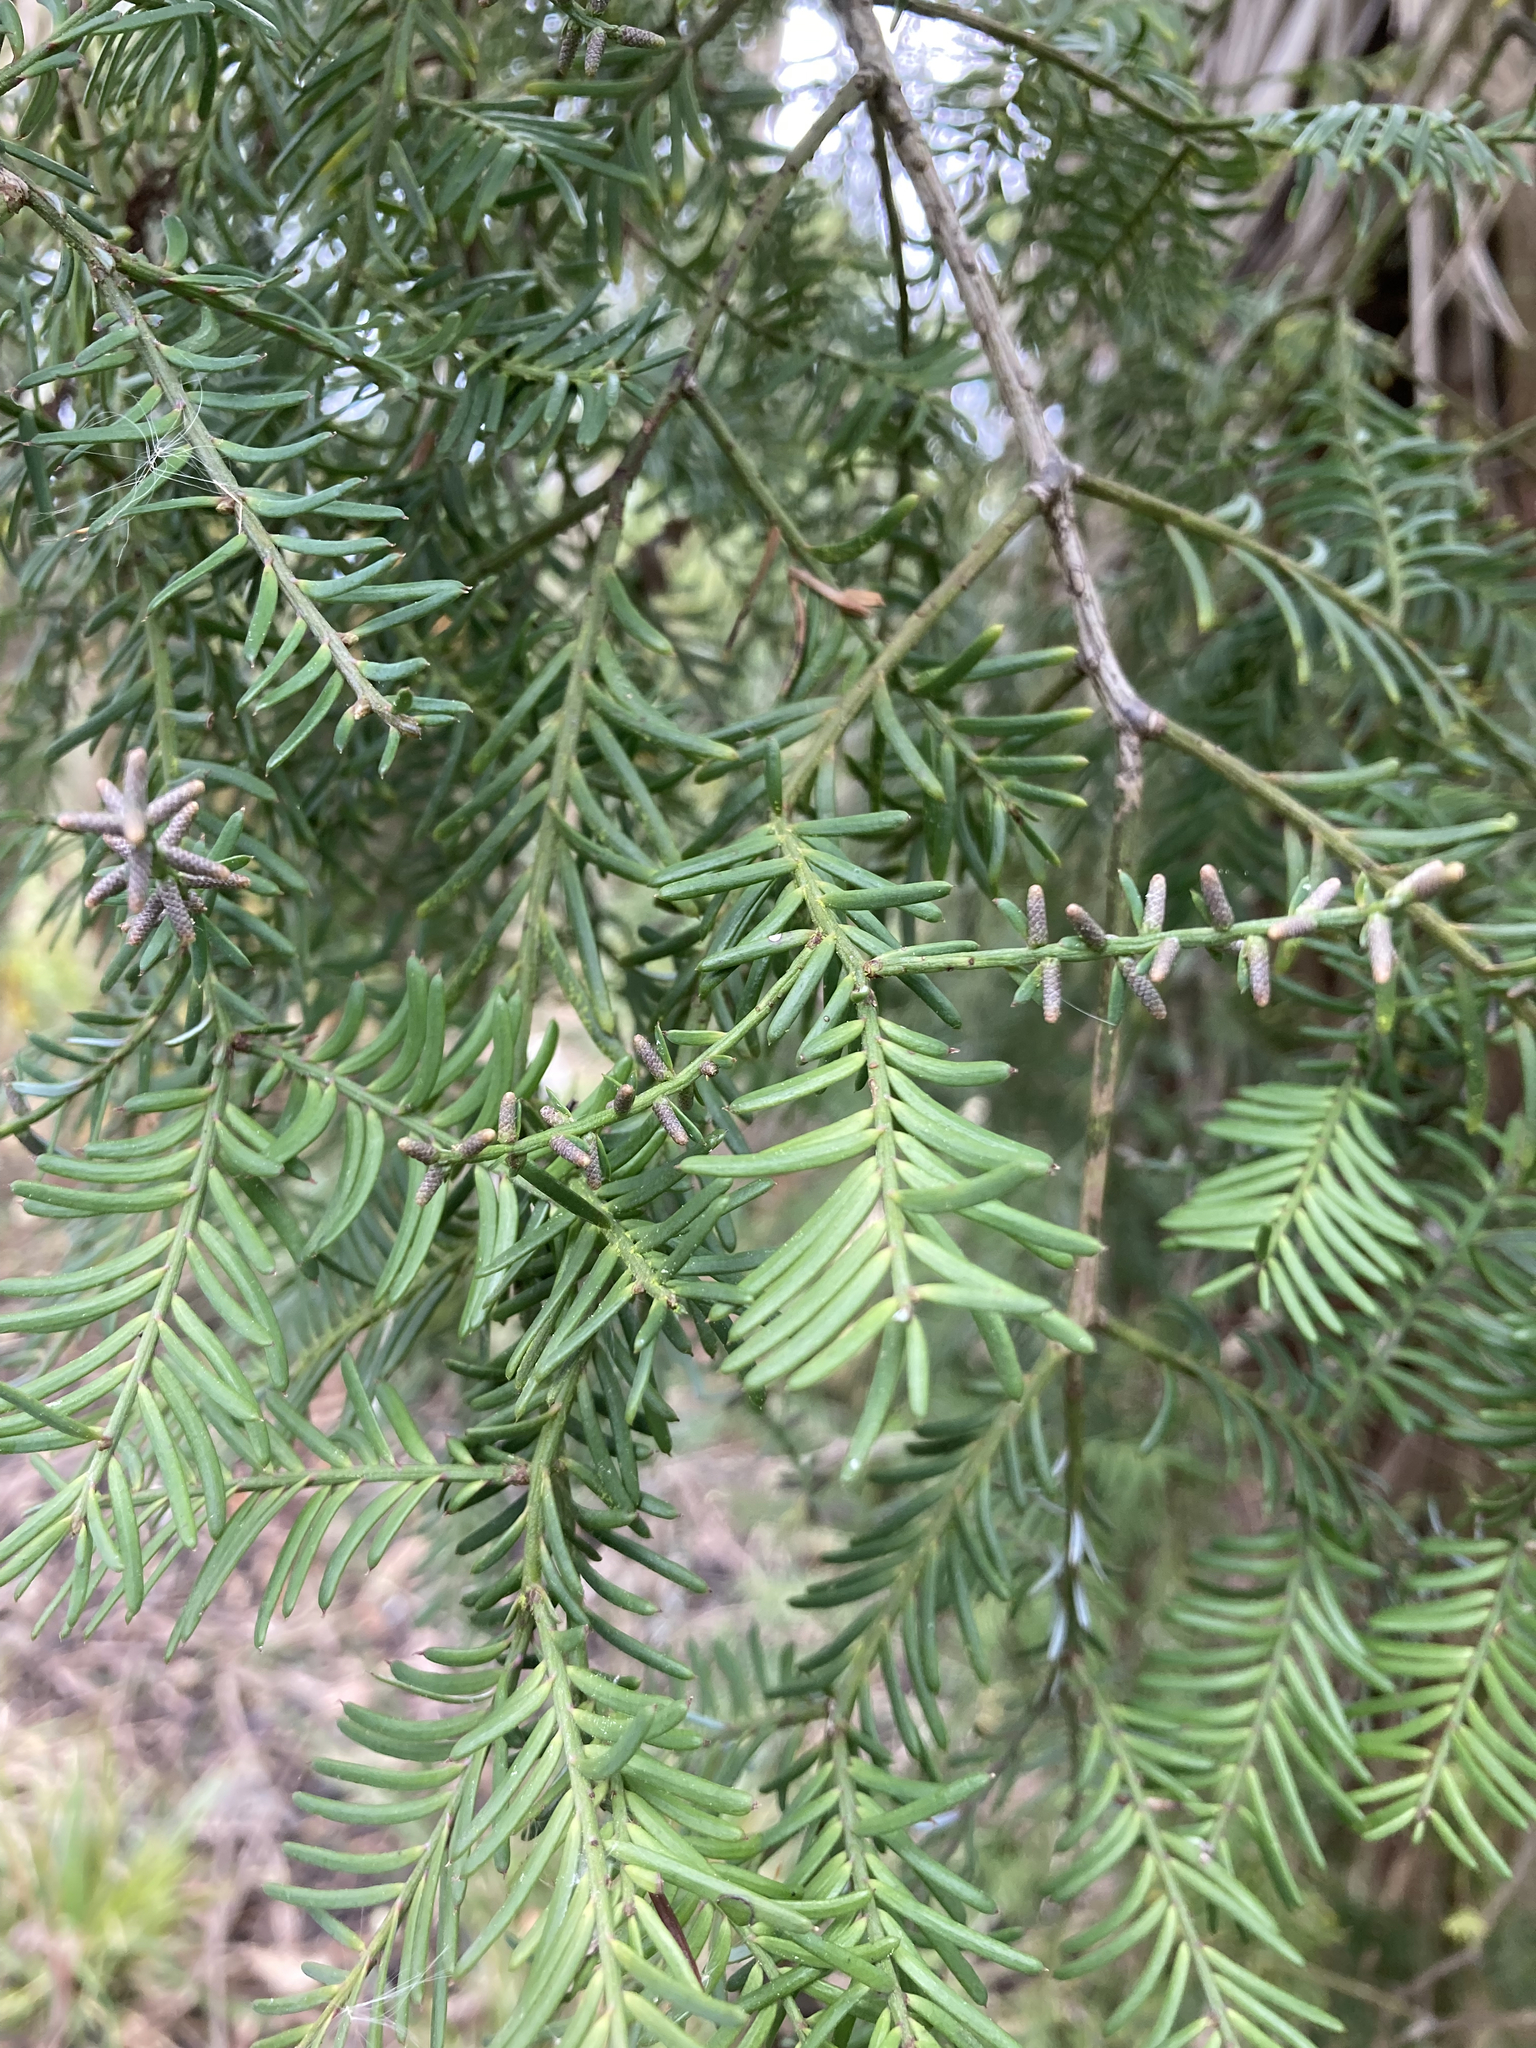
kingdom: Plantae
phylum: Tracheophyta
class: Pinopsida
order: Pinales
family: Podocarpaceae
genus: Prumnopitys
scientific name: Prumnopitys taxifolia
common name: Matai
